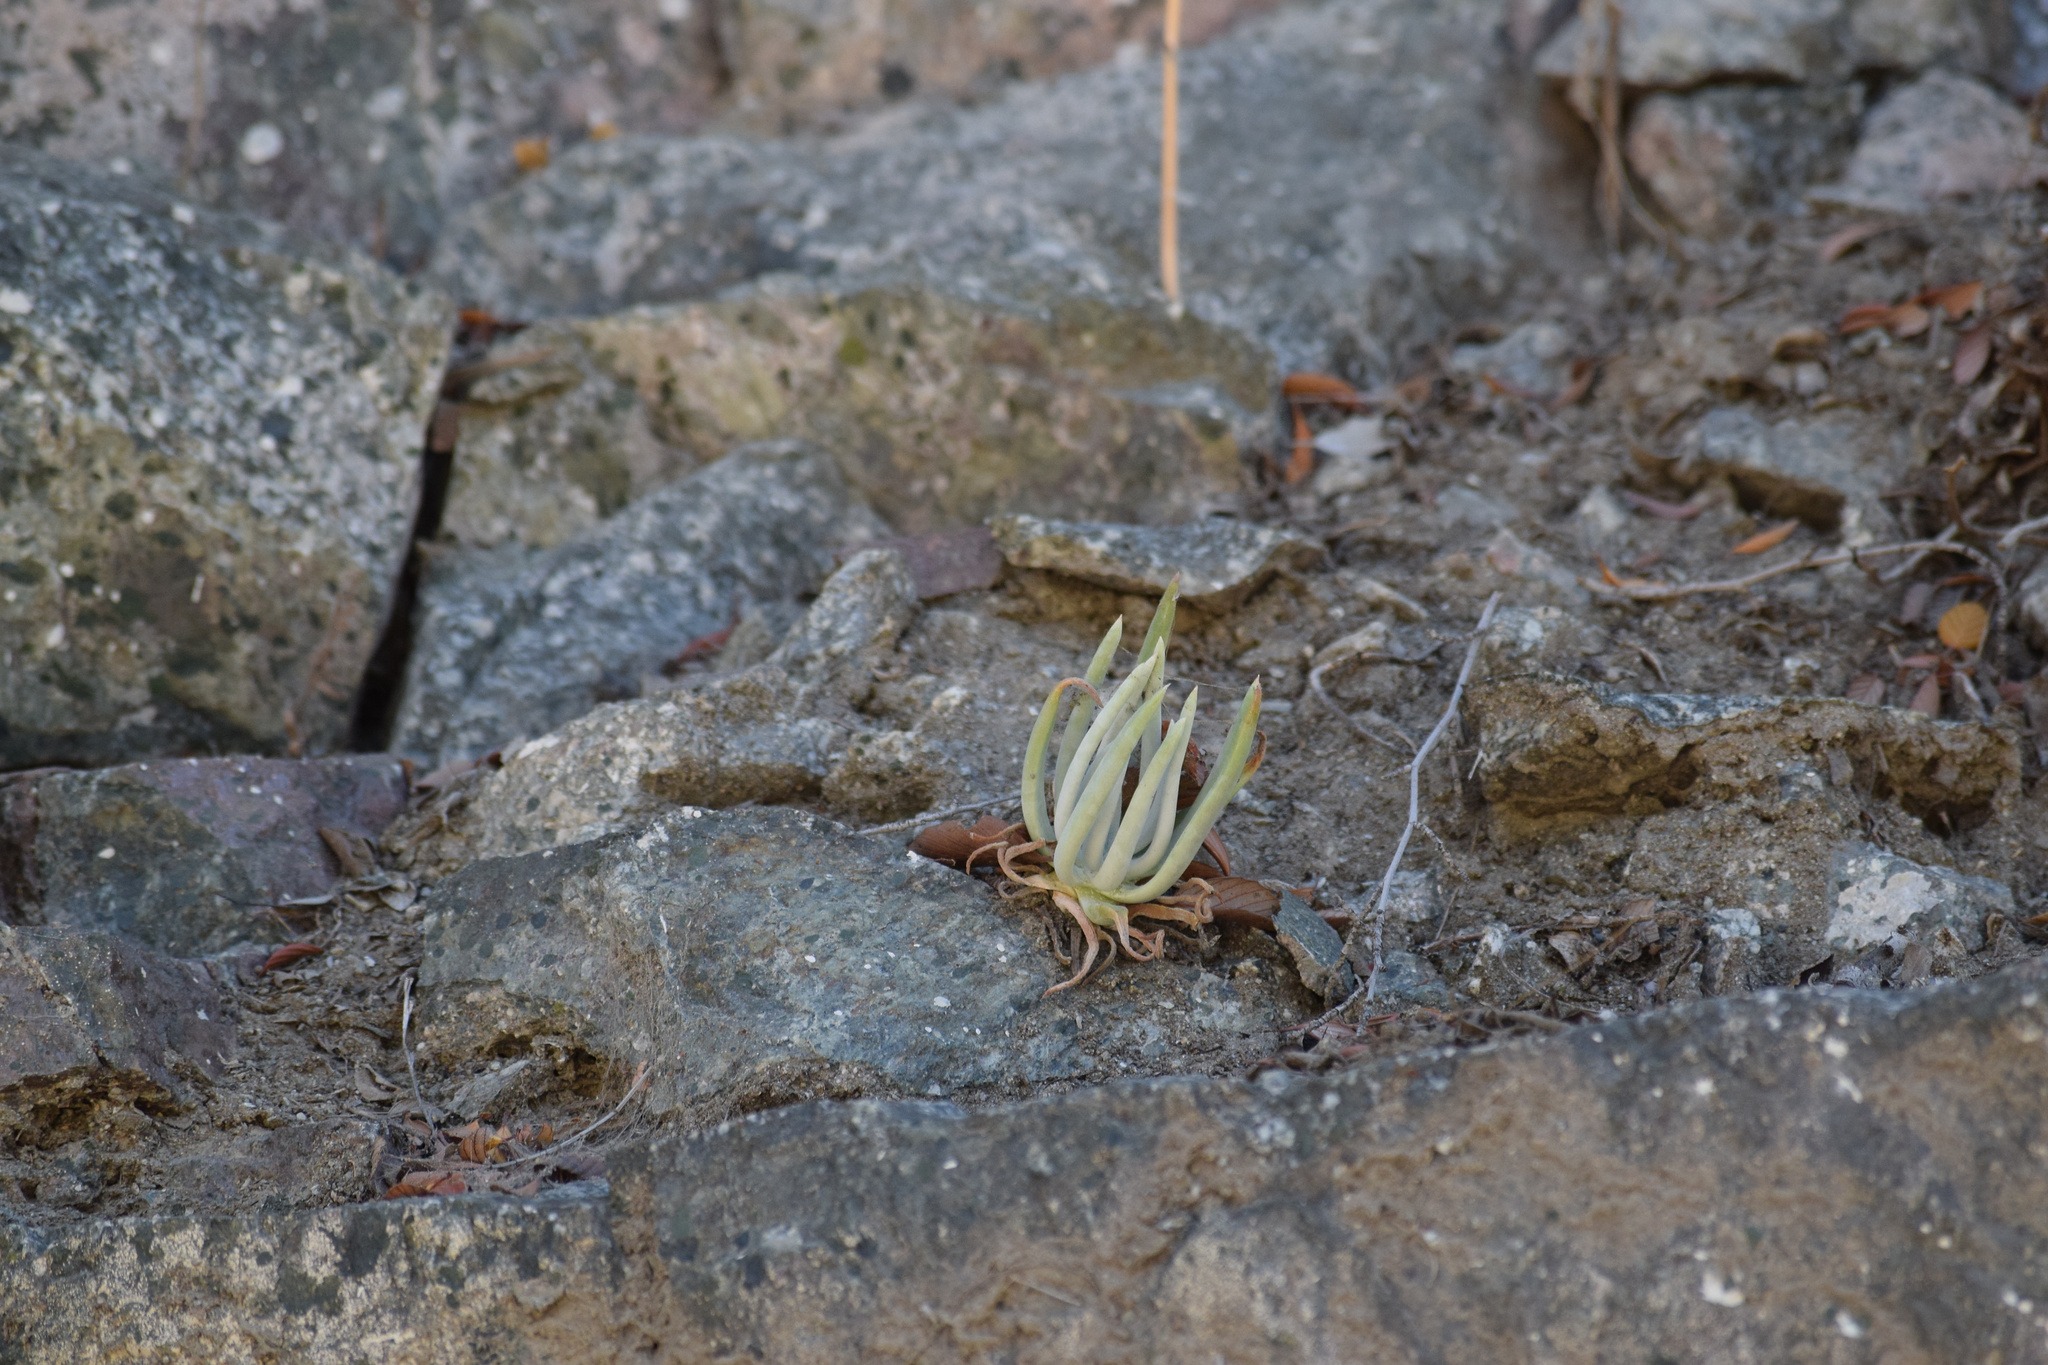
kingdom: Plantae
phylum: Tracheophyta
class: Magnoliopsida
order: Saxifragales
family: Crassulaceae
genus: Dudleya
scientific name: Dudleya densiflora
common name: San gabriel mountains dudleya
